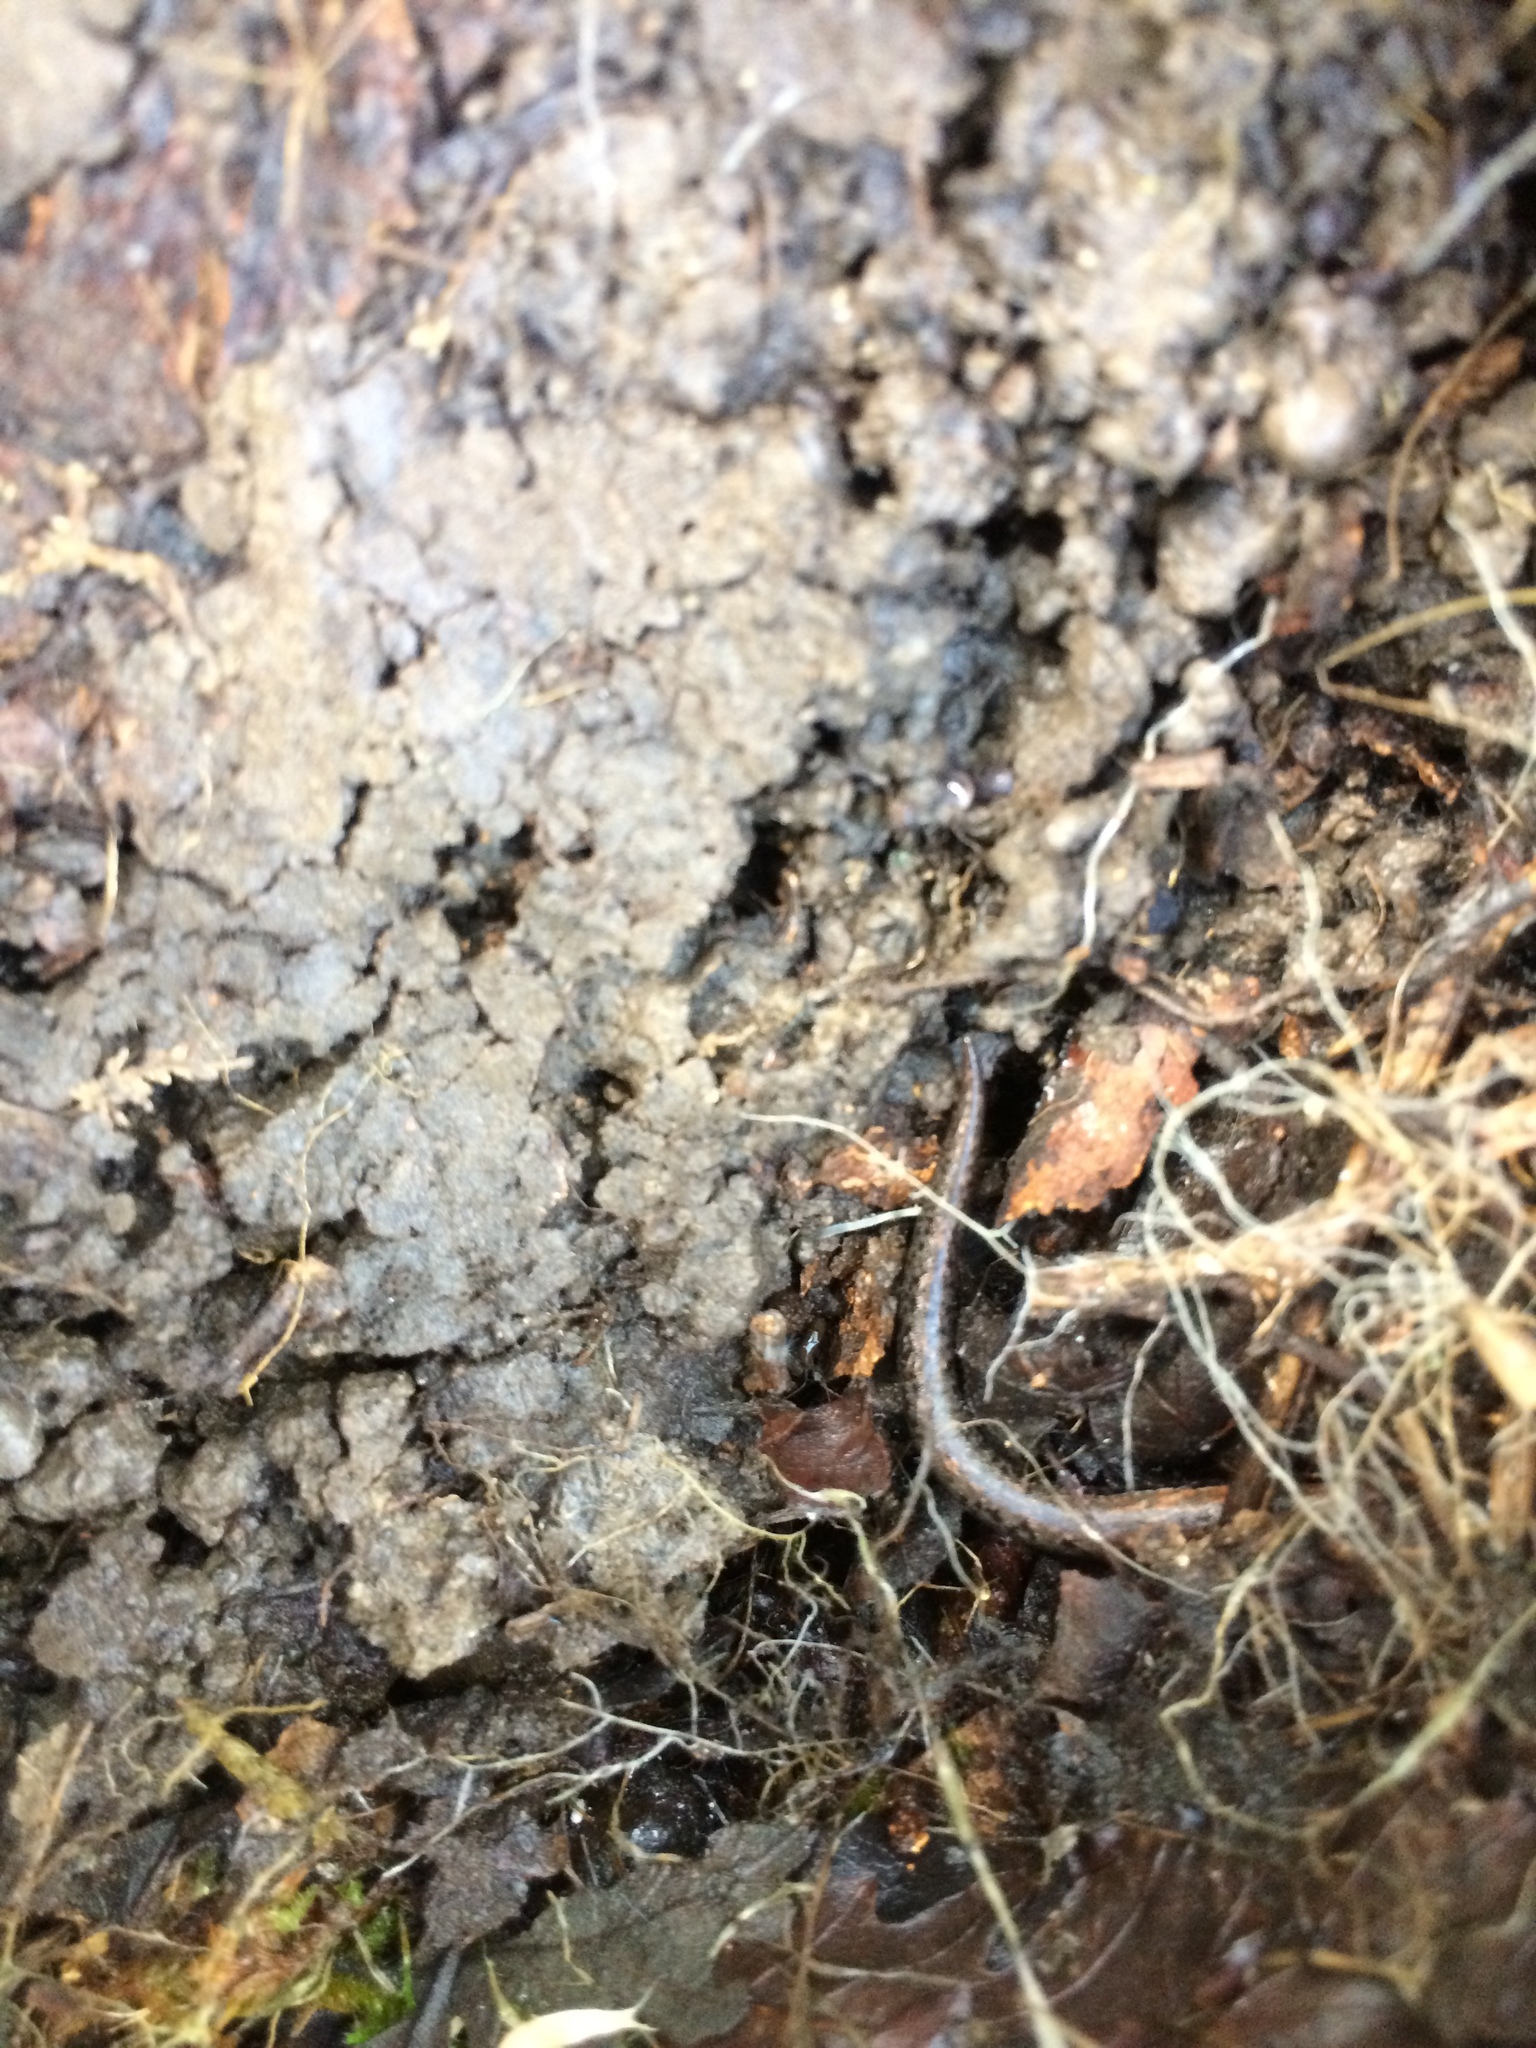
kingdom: Animalia
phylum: Chordata
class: Amphibia
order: Caudata
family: Plethodontidae
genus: Batrachoseps
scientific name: Batrachoseps attenuatus
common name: California slender salamander
